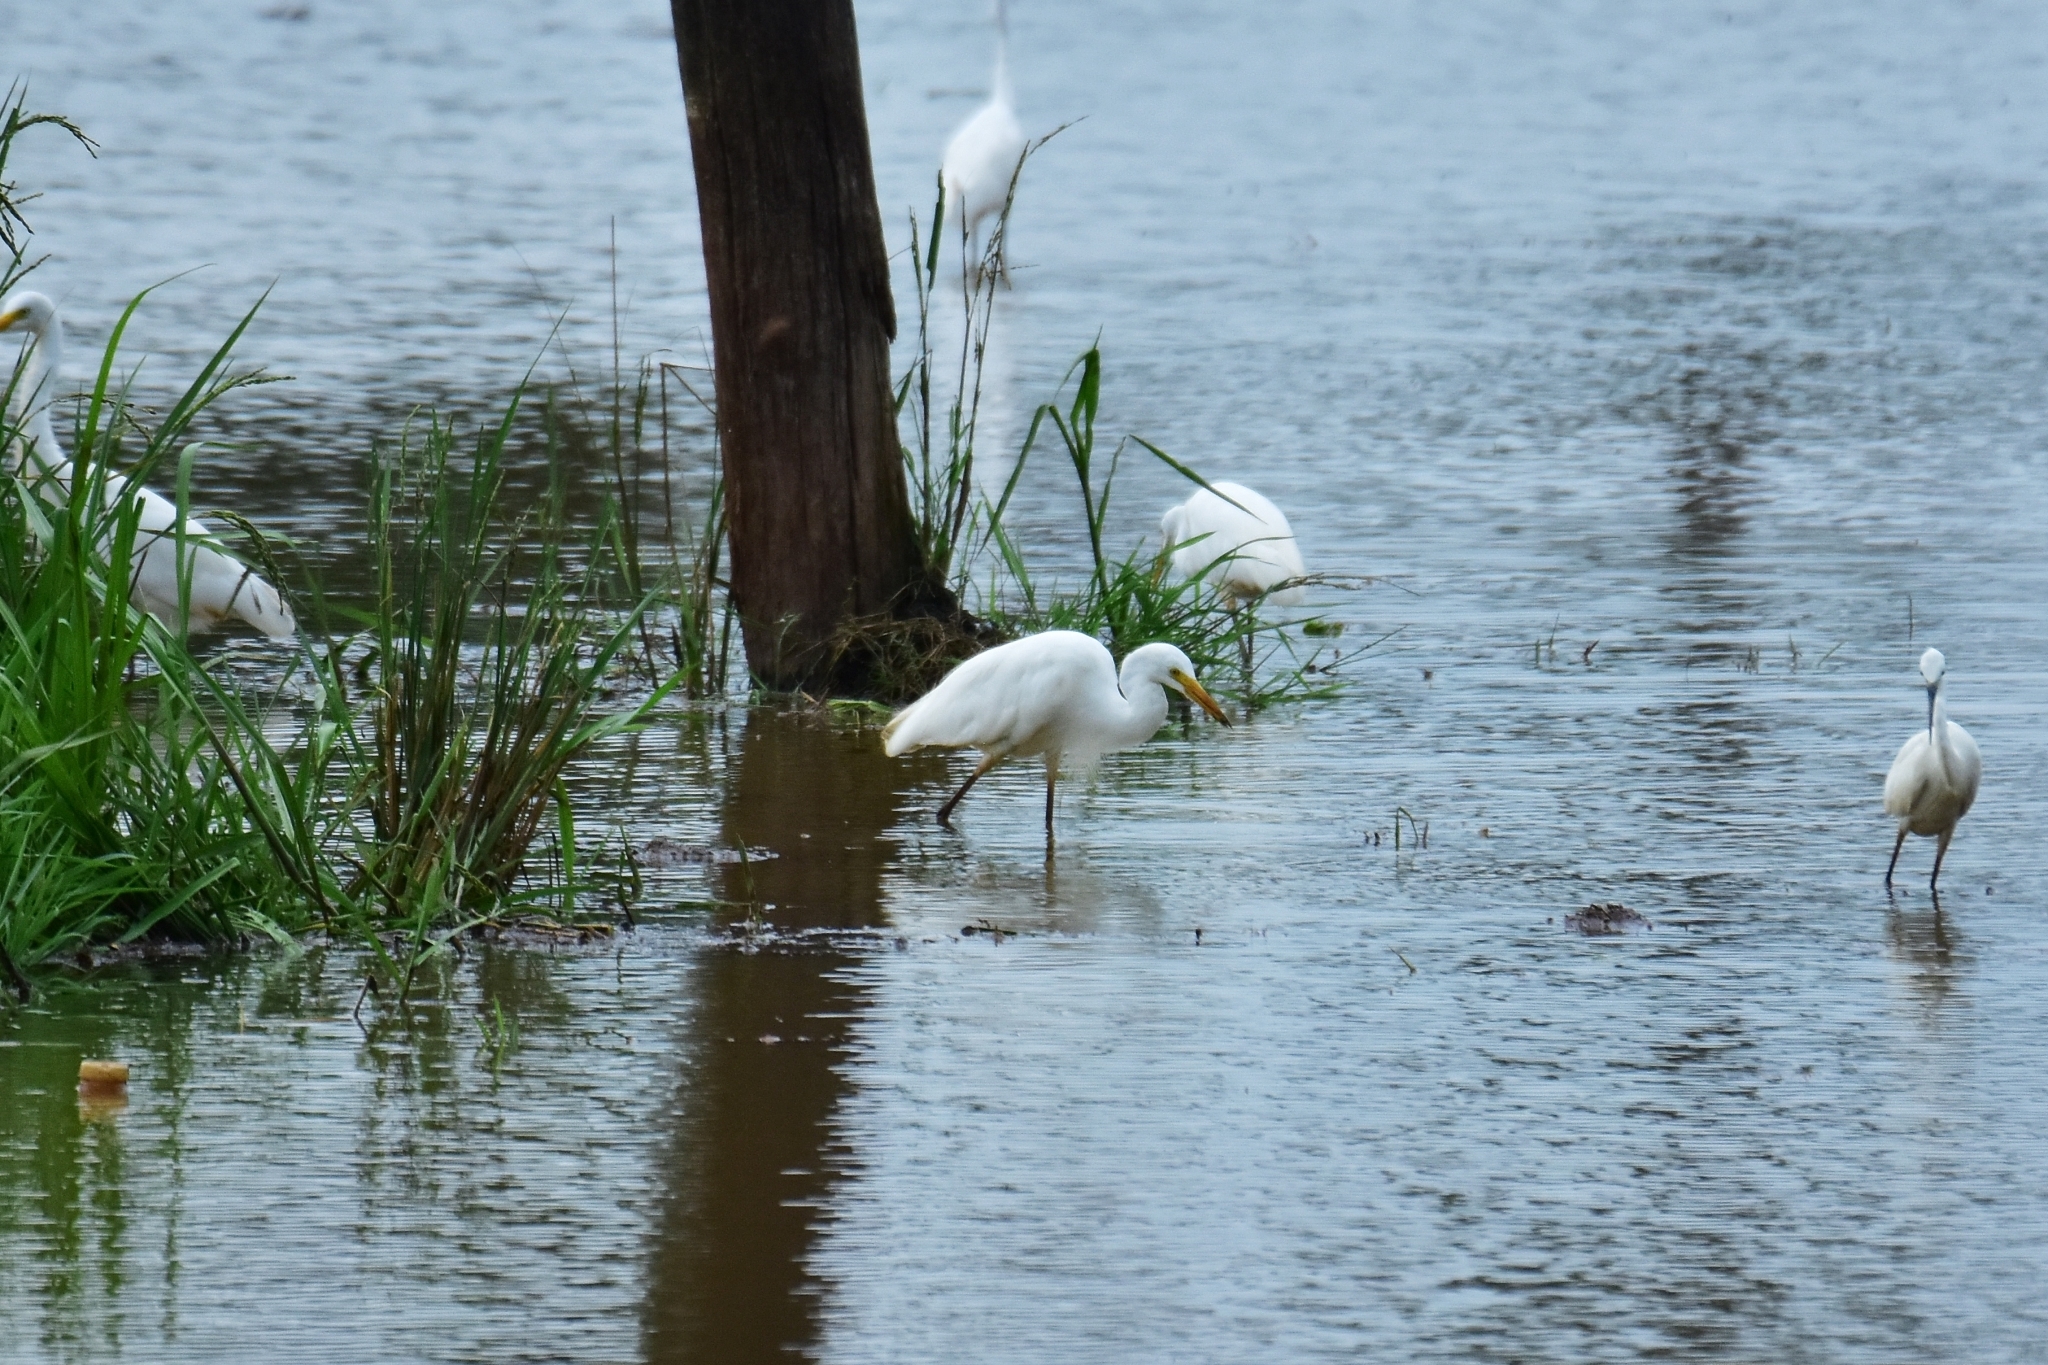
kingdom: Animalia
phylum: Chordata
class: Aves
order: Pelecaniformes
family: Ardeidae
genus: Egretta
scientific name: Egretta intermedia
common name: Intermediate egret
